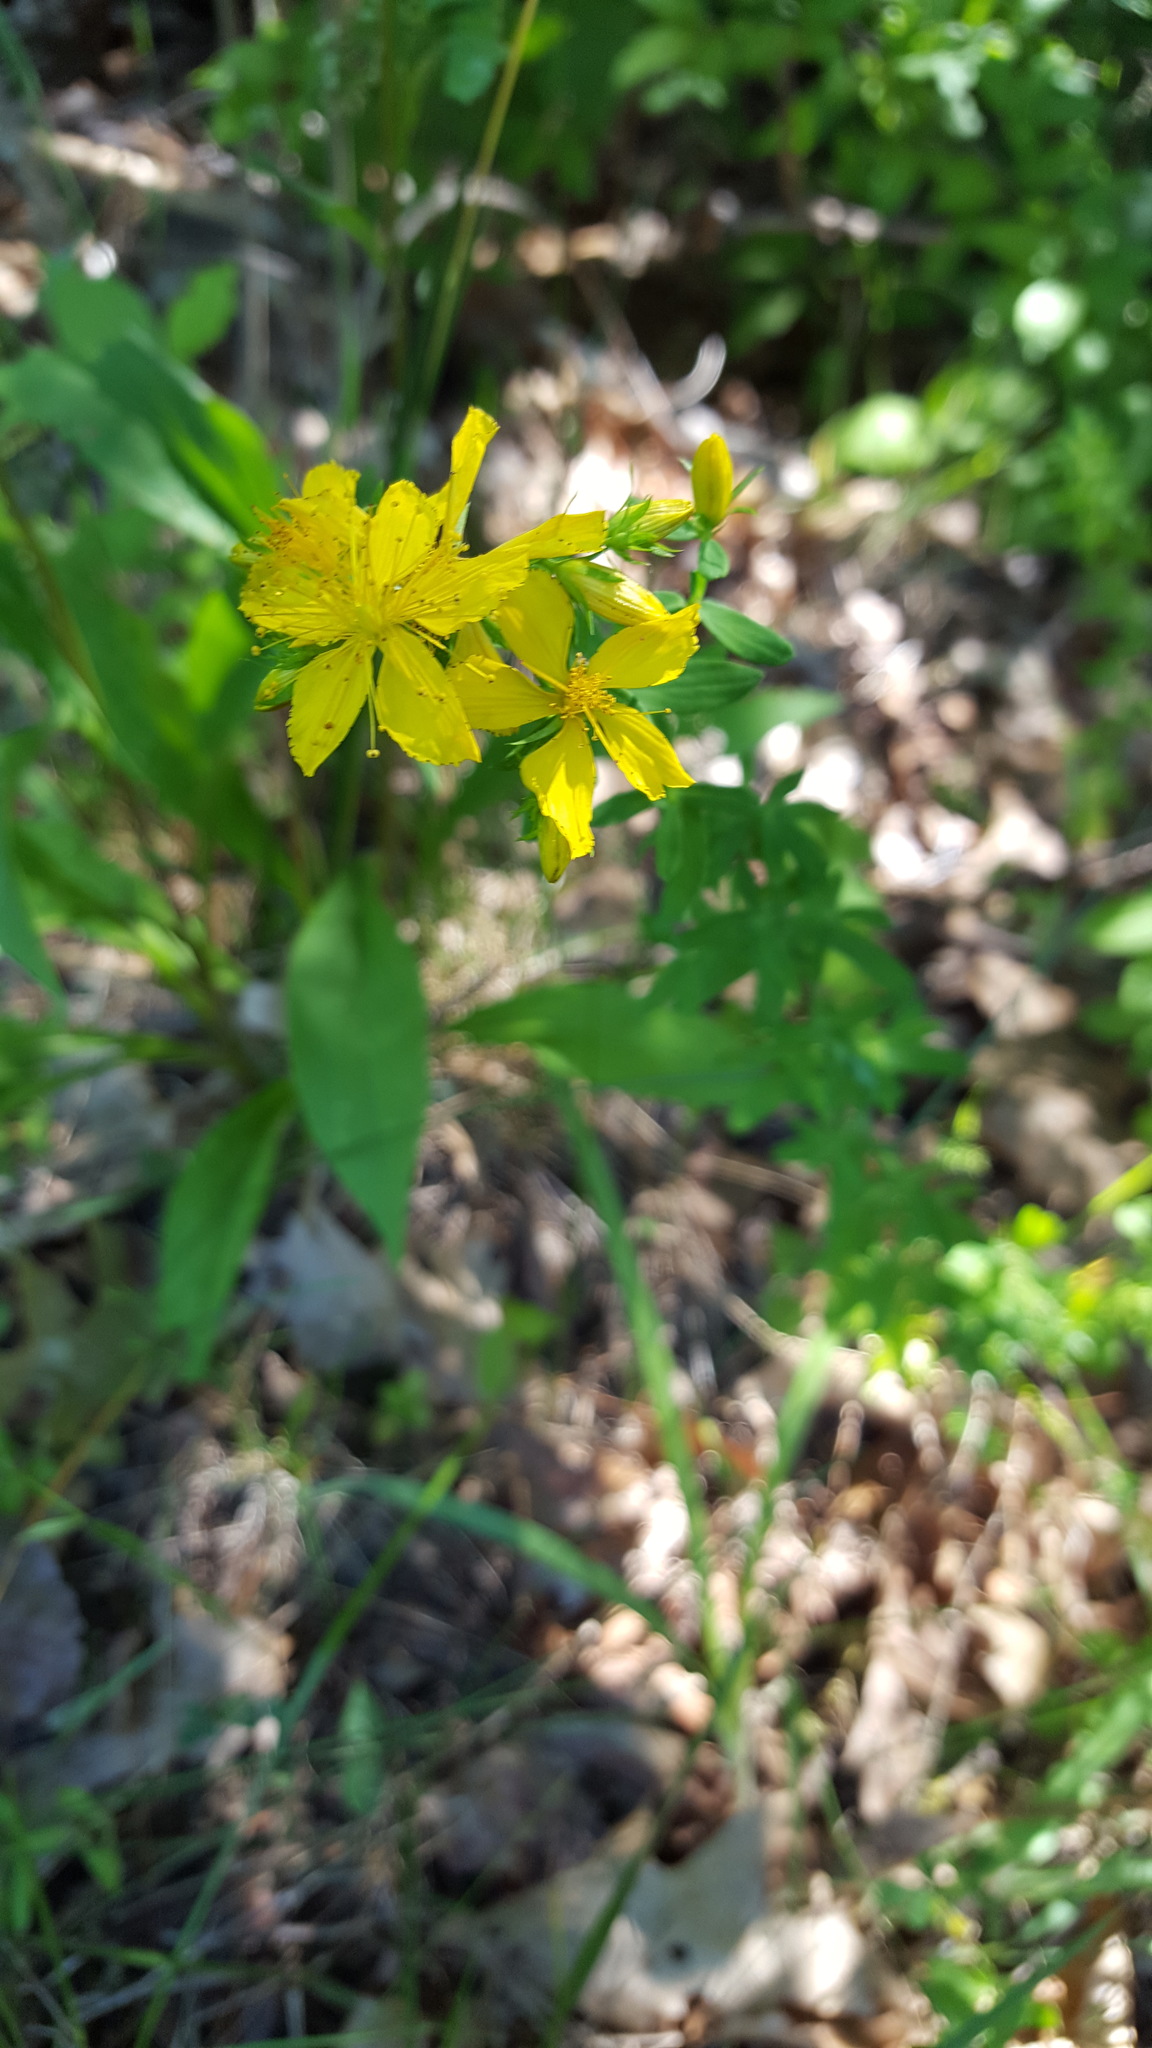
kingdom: Plantae
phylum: Tracheophyta
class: Magnoliopsida
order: Malpighiales
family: Hypericaceae
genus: Hypericum
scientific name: Hypericum perforatum
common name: Common st. johnswort
